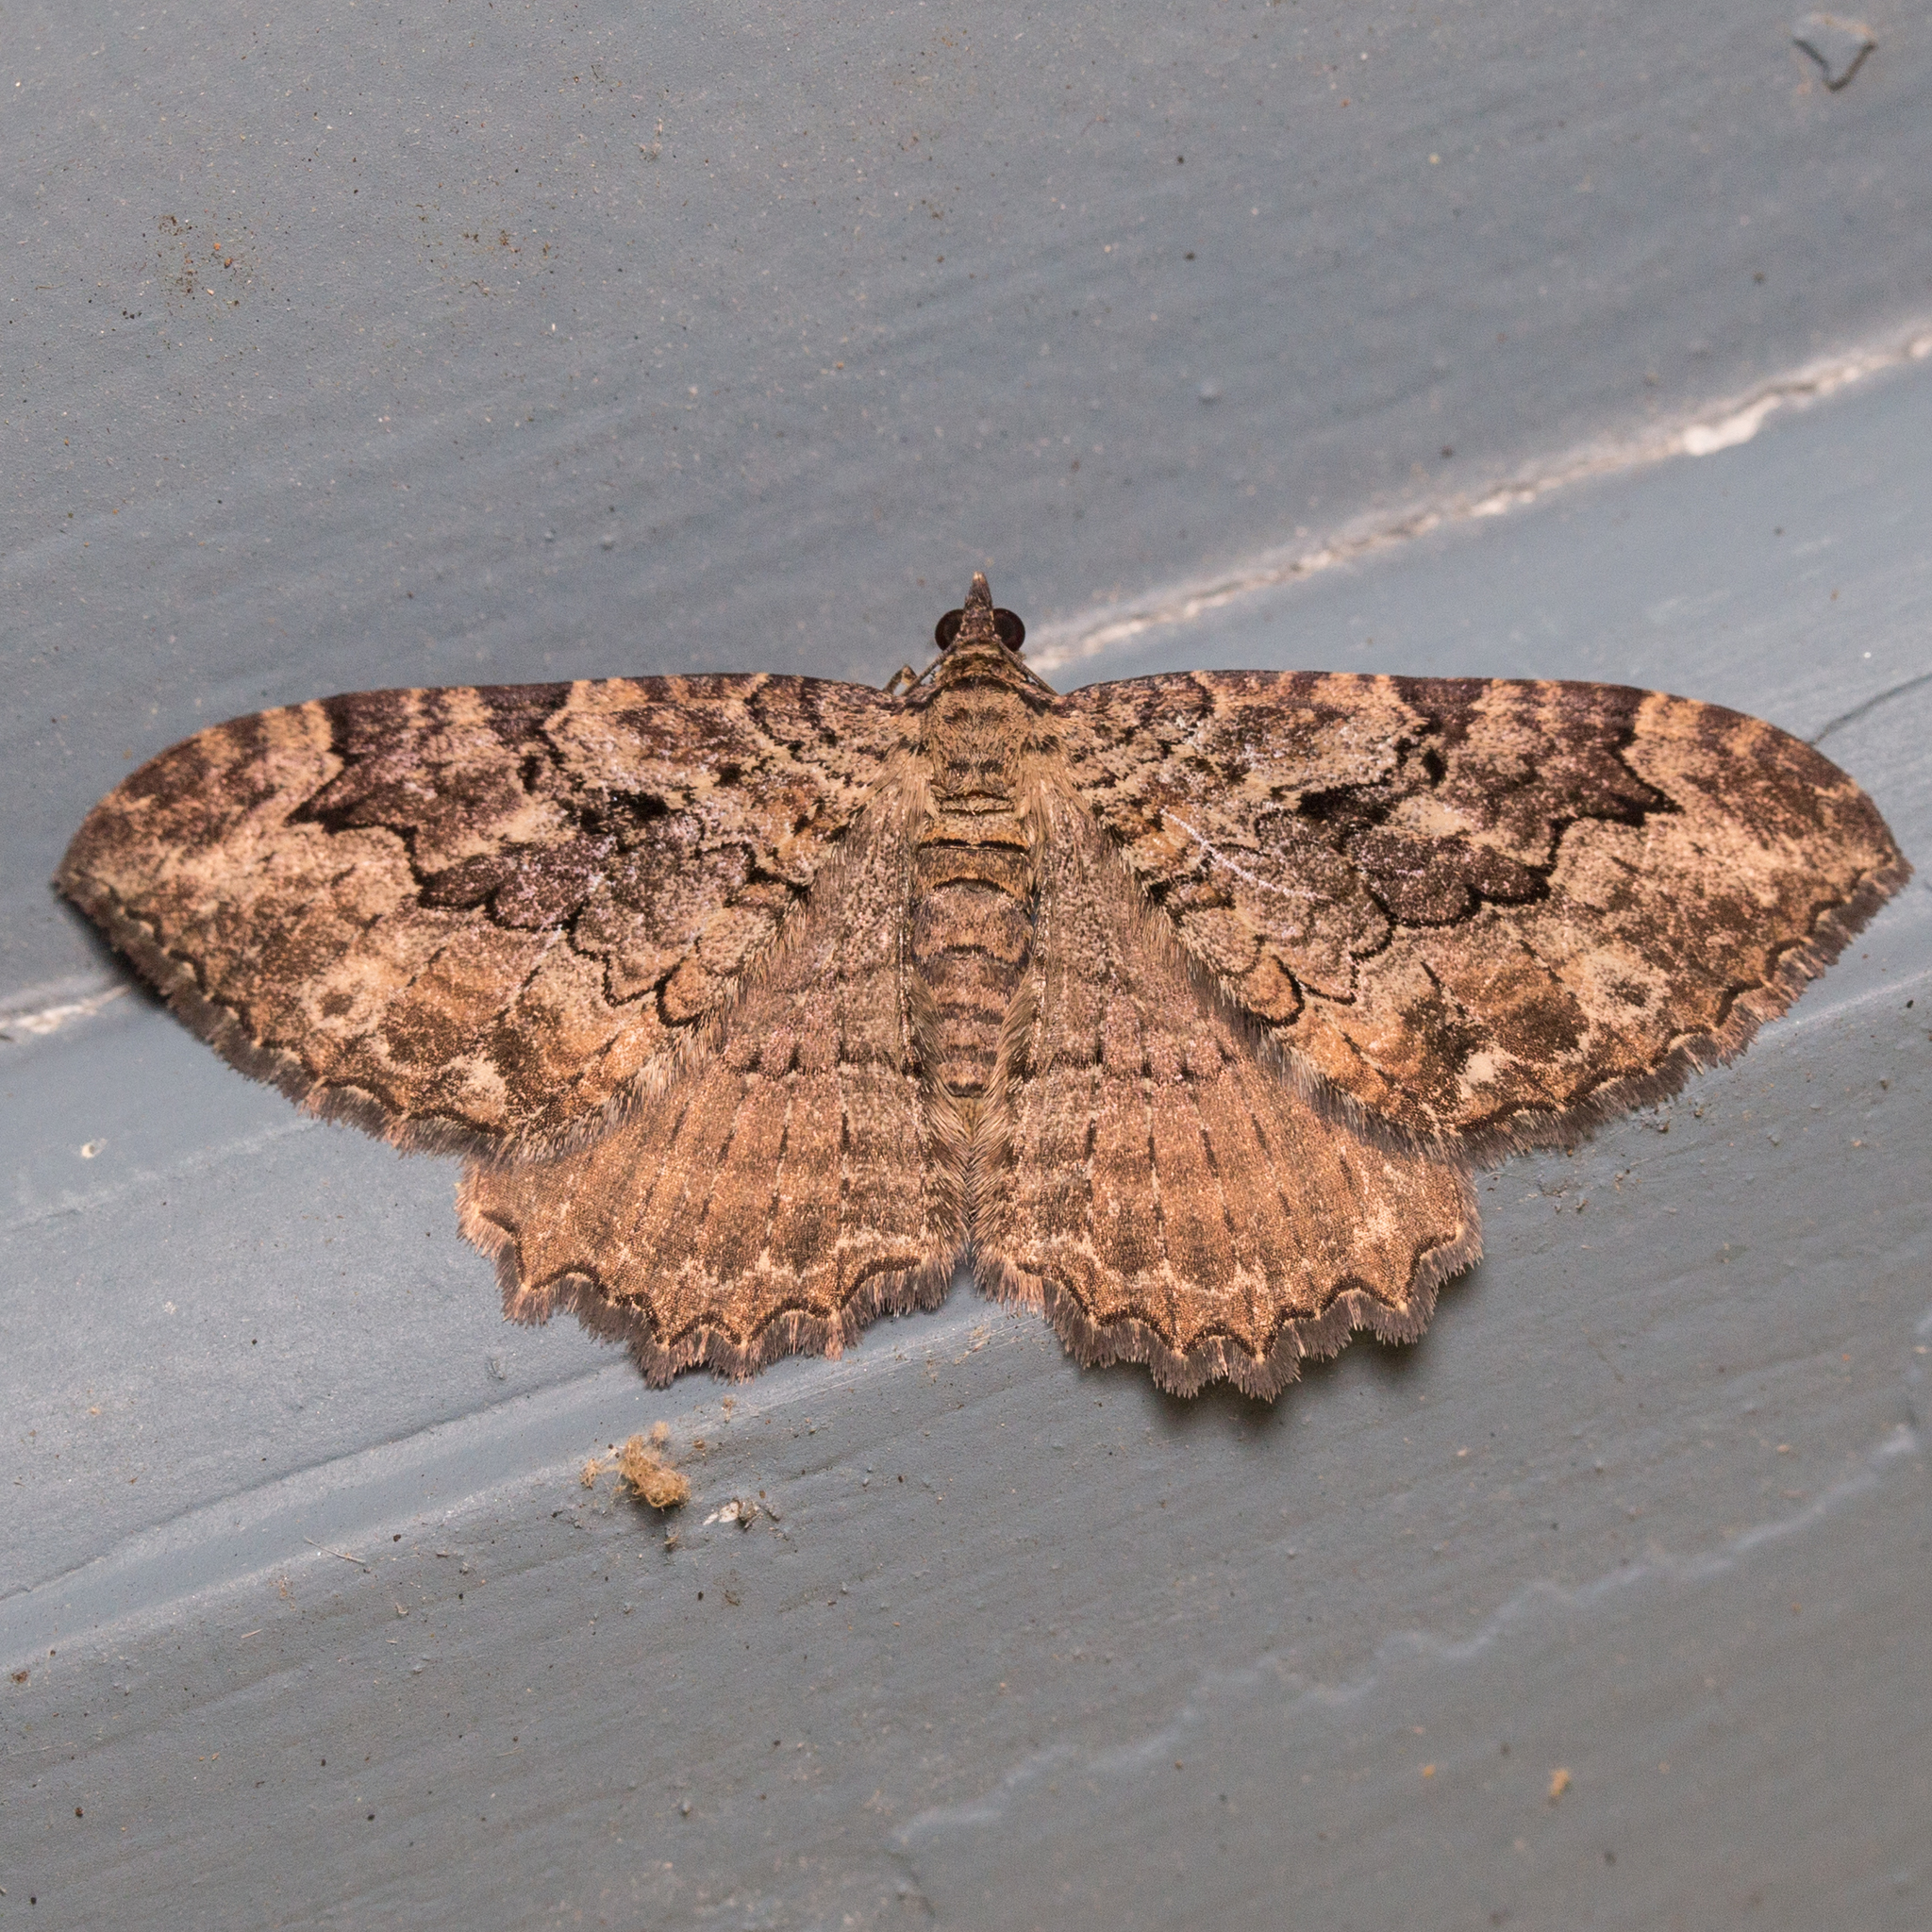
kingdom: Animalia
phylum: Arthropoda
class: Insecta
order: Lepidoptera
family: Geometridae
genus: Rheumaptera
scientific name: Rheumaptera
